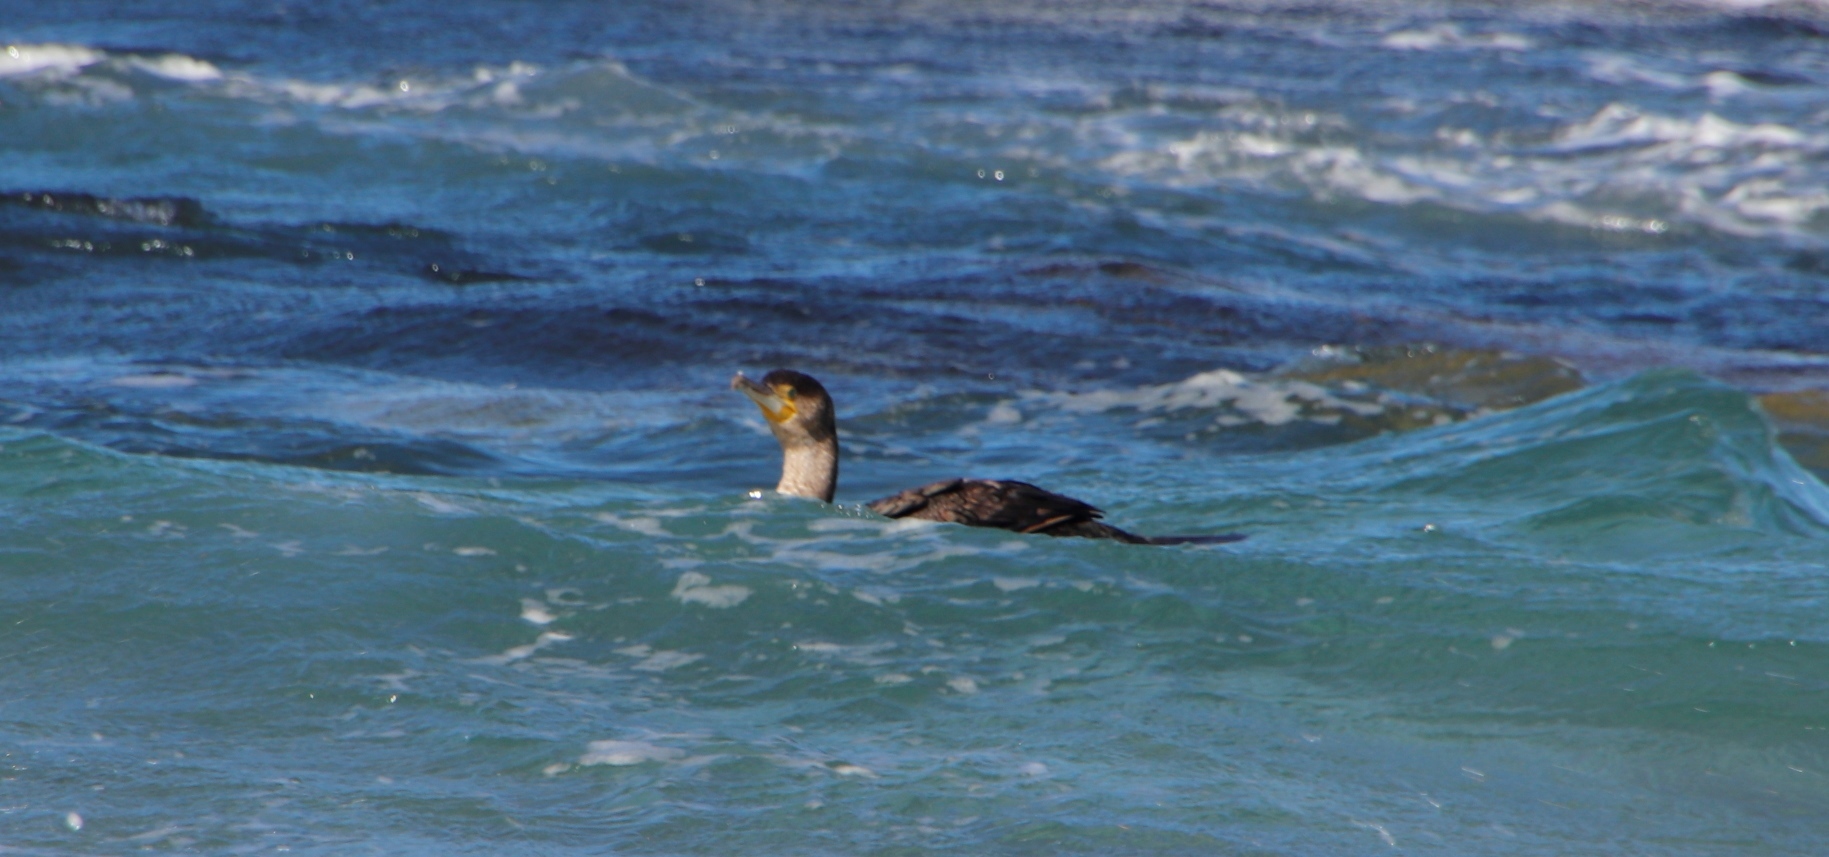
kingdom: Animalia
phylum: Chordata
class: Aves
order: Suliformes
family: Phalacrocoracidae
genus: Phalacrocorax
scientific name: Phalacrocorax carbo
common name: Great cormorant
